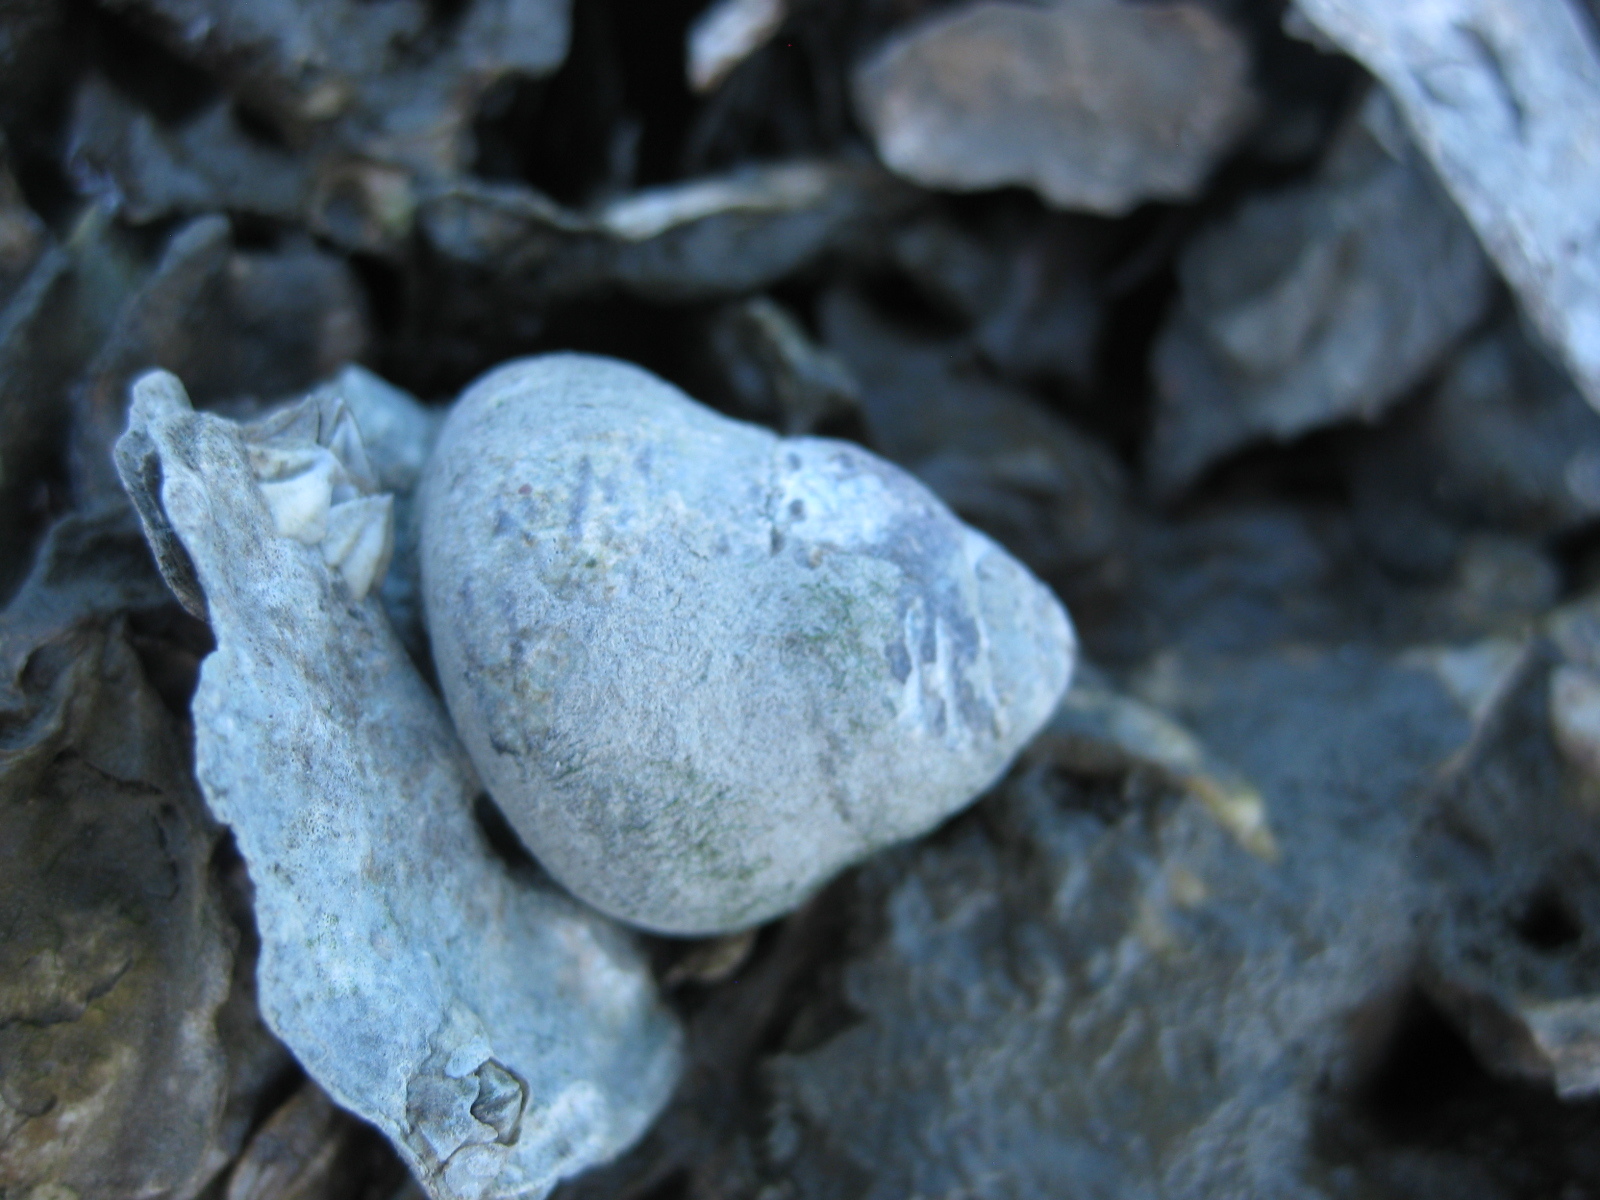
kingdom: Animalia
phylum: Mollusca
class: Gastropoda
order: Trochida
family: Trochidae
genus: Diloma
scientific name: Diloma subrostratum
